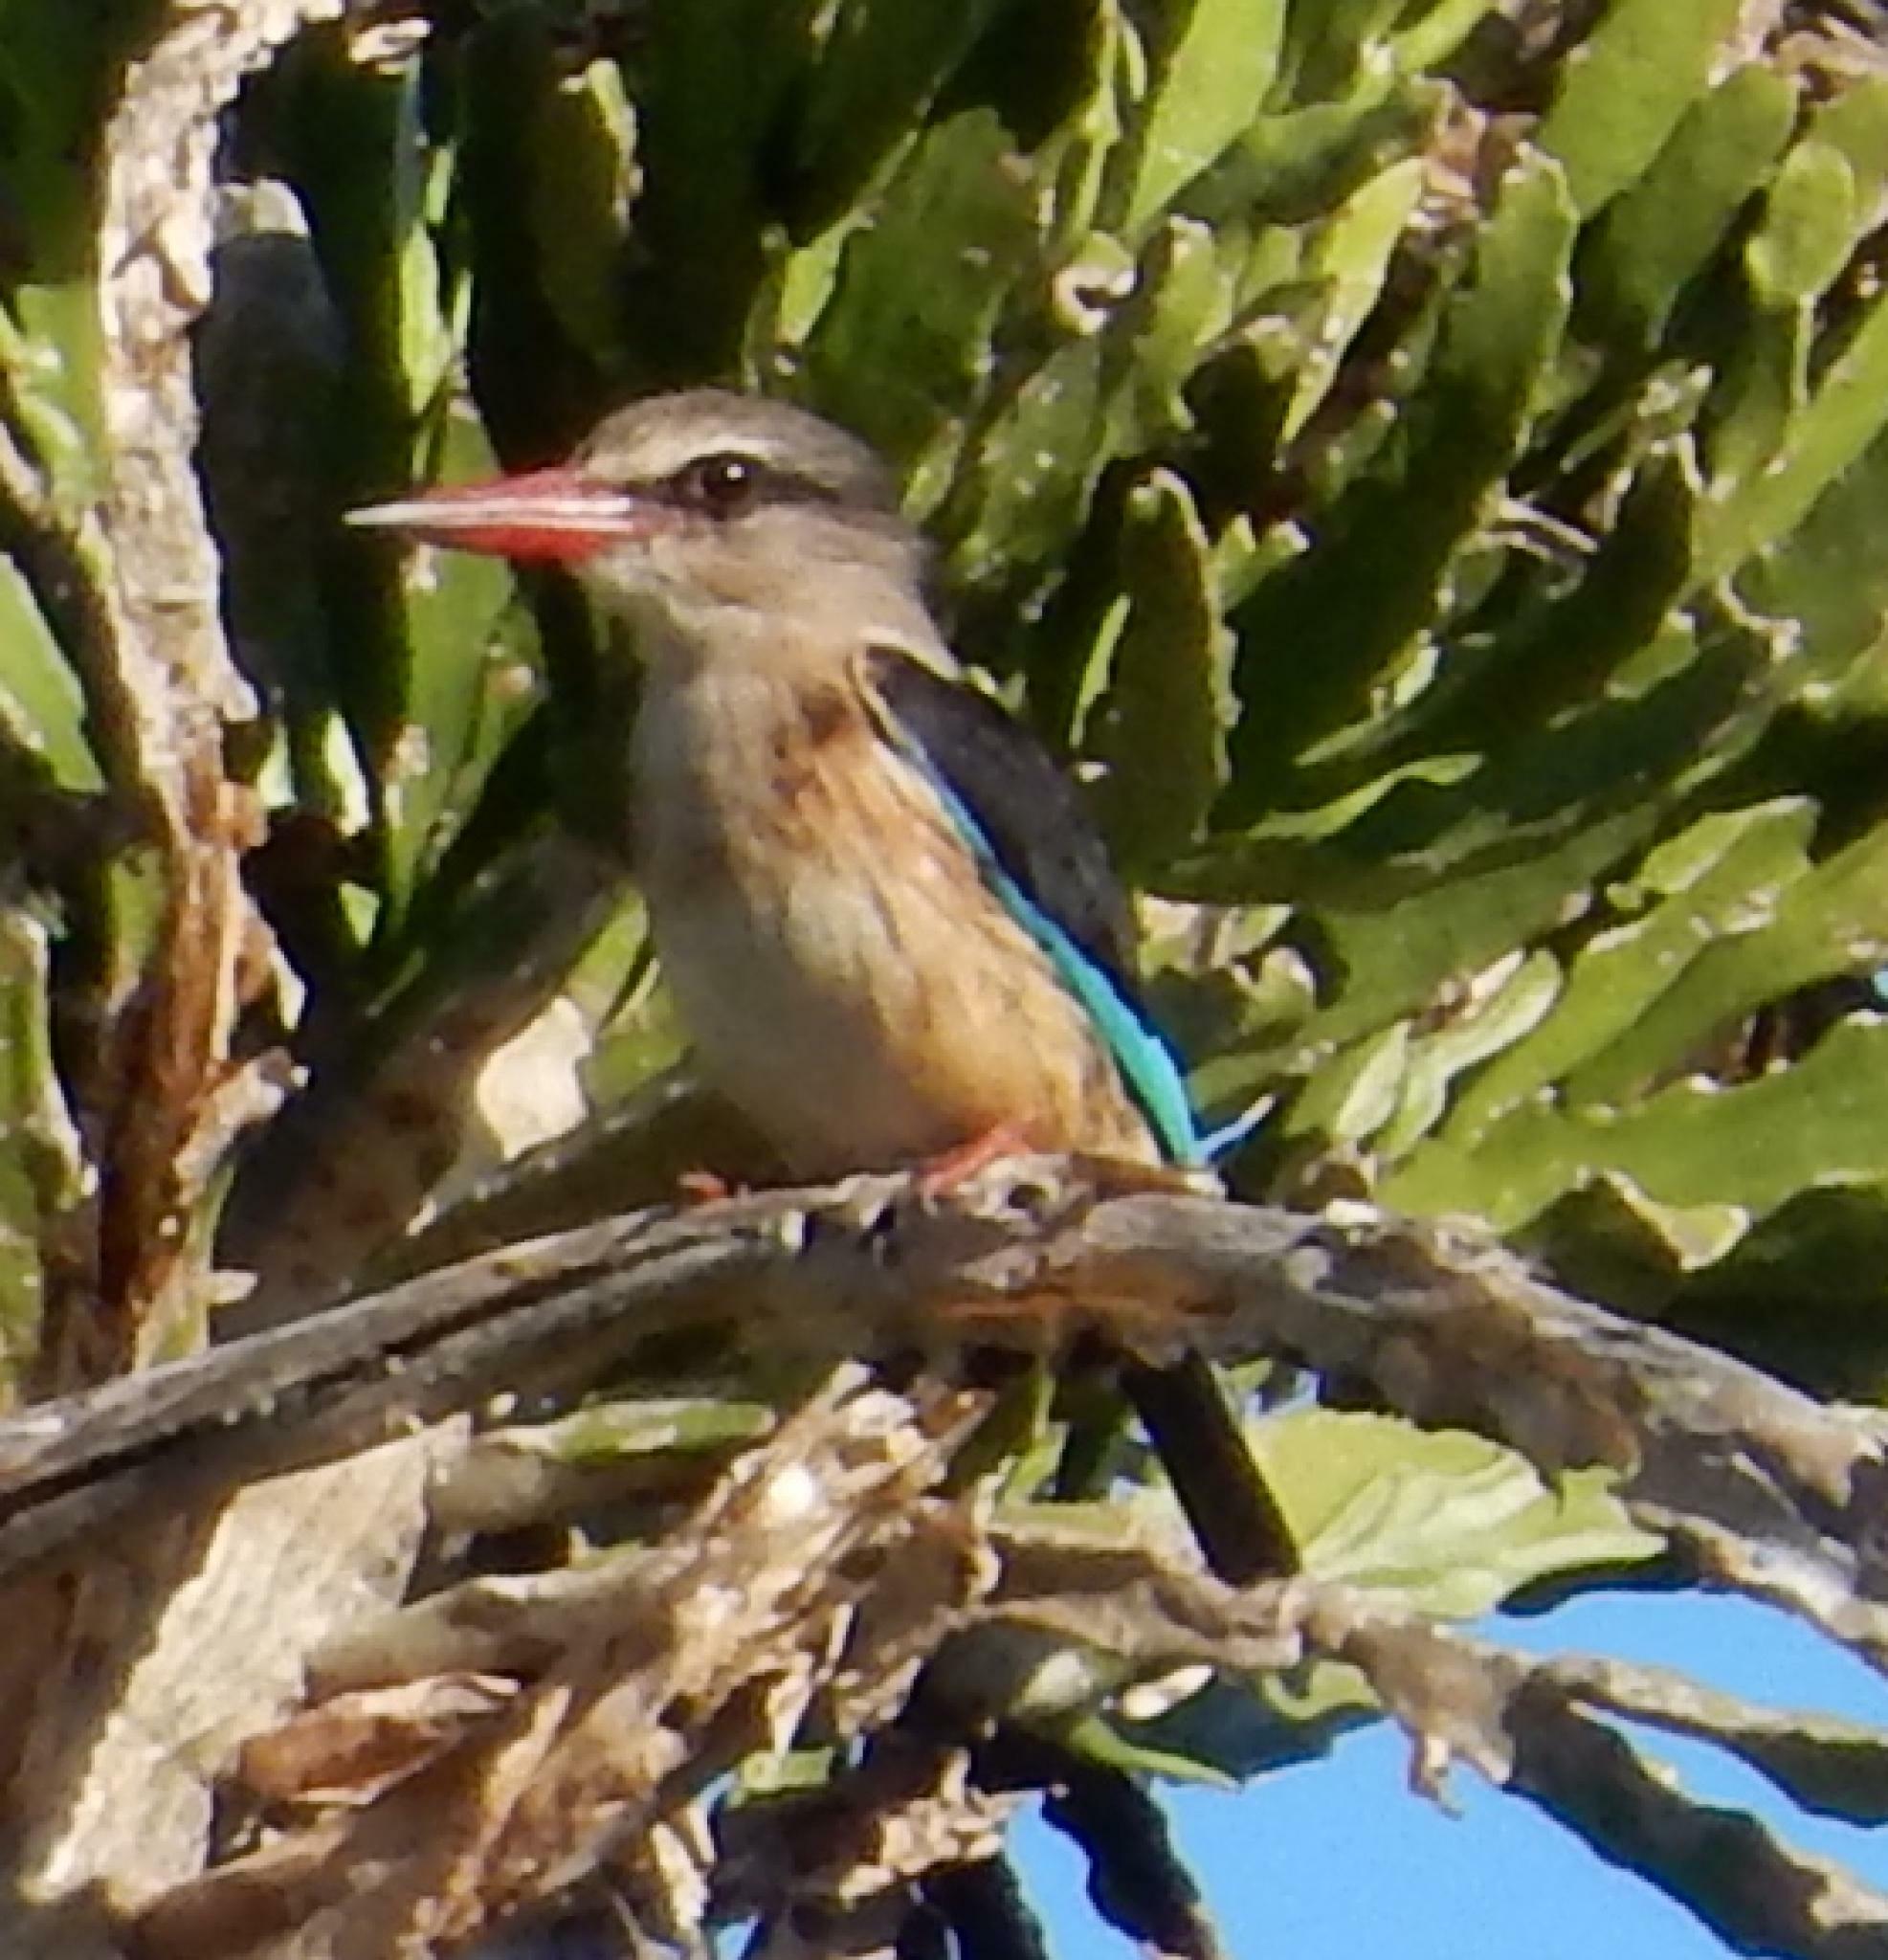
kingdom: Animalia
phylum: Chordata
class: Aves
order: Coraciiformes
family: Alcedinidae
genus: Halcyon
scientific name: Halcyon albiventris
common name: Brown-hooded kingfisher
